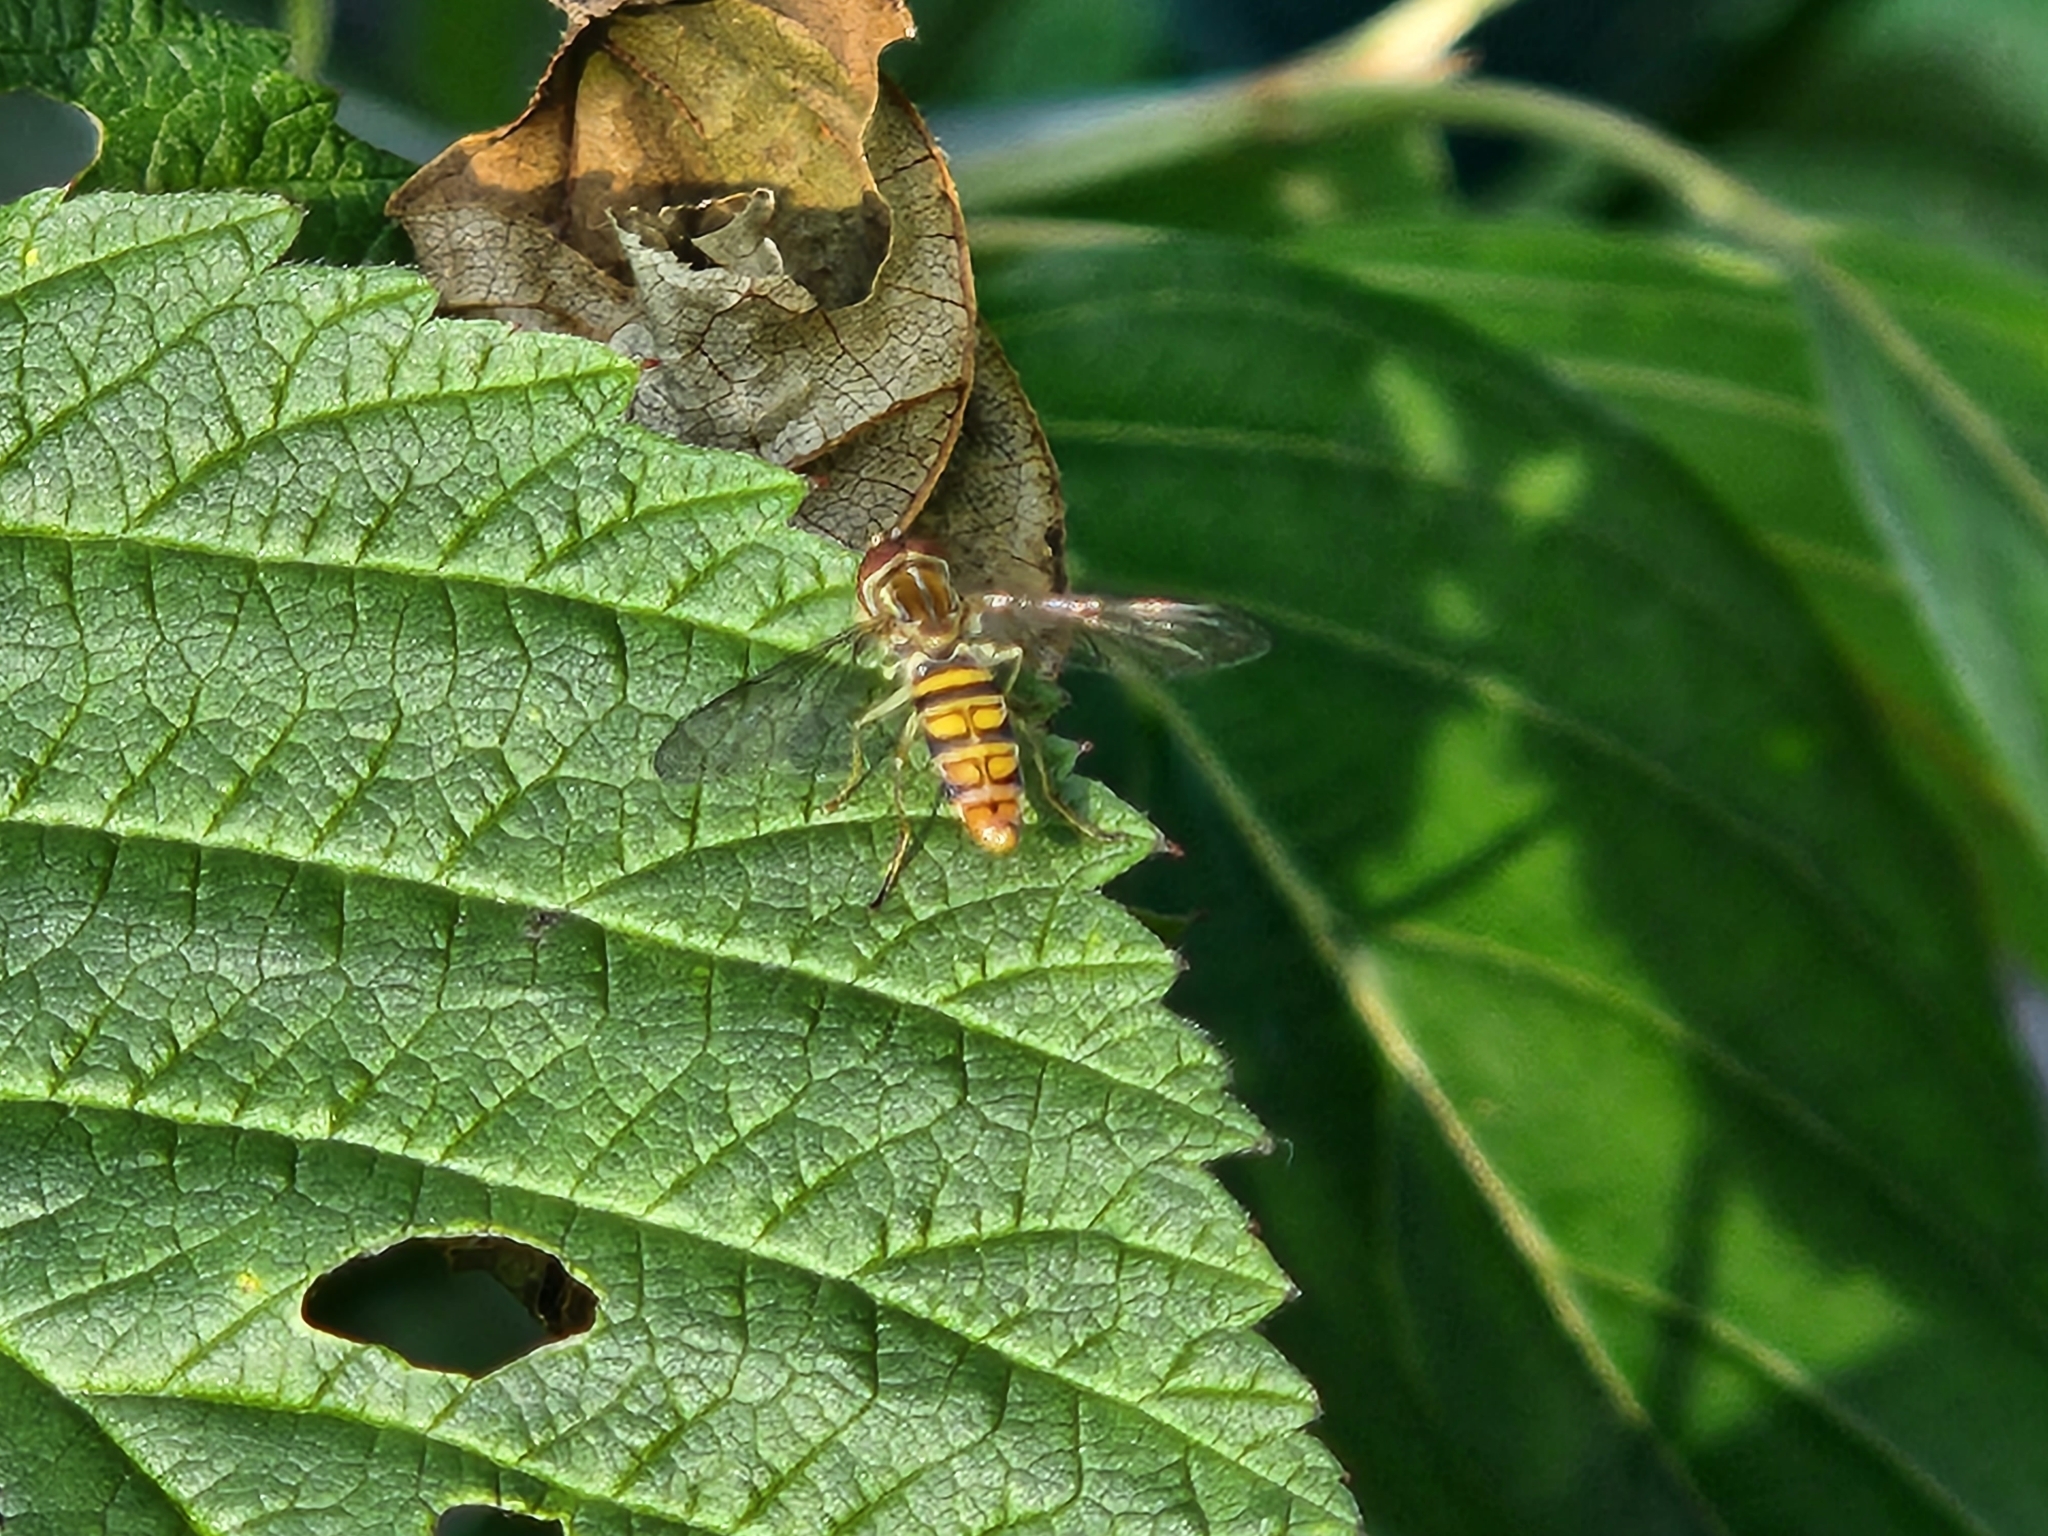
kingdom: Animalia
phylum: Arthropoda
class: Insecta
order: Diptera
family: Syrphidae
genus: Toxomerus
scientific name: Toxomerus politus
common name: Maize calligrapher
